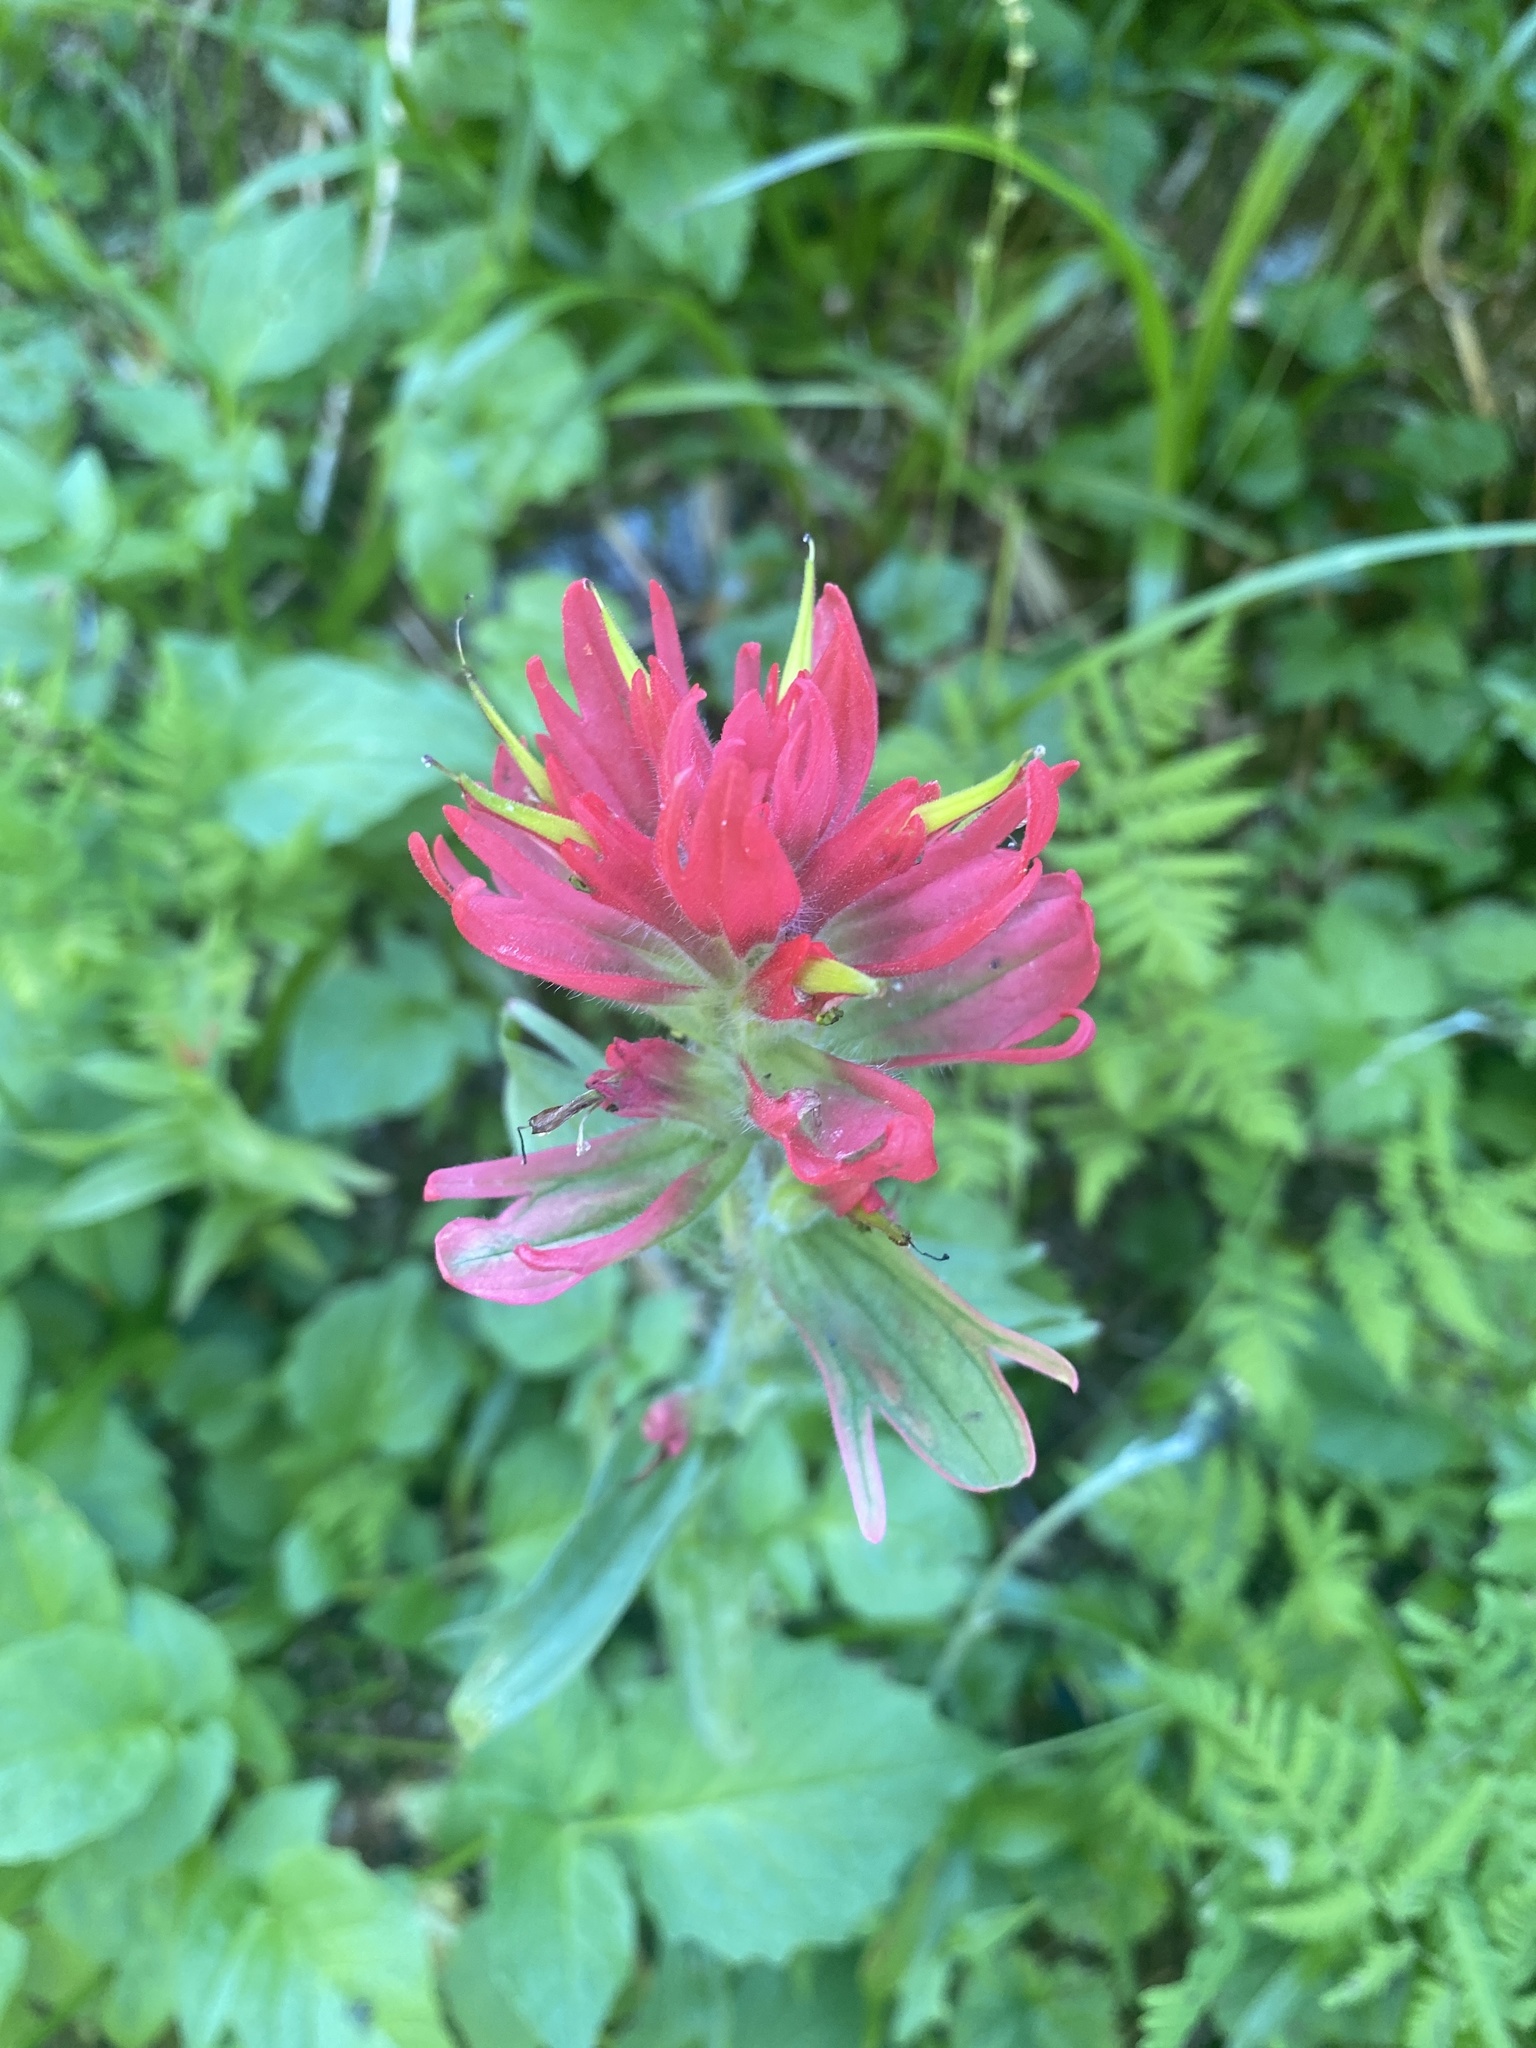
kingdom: Plantae
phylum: Tracheophyta
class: Magnoliopsida
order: Lamiales
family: Orobanchaceae
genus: Castilleja
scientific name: Castilleja rhexifolia
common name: Rocky mountain paintbrush
